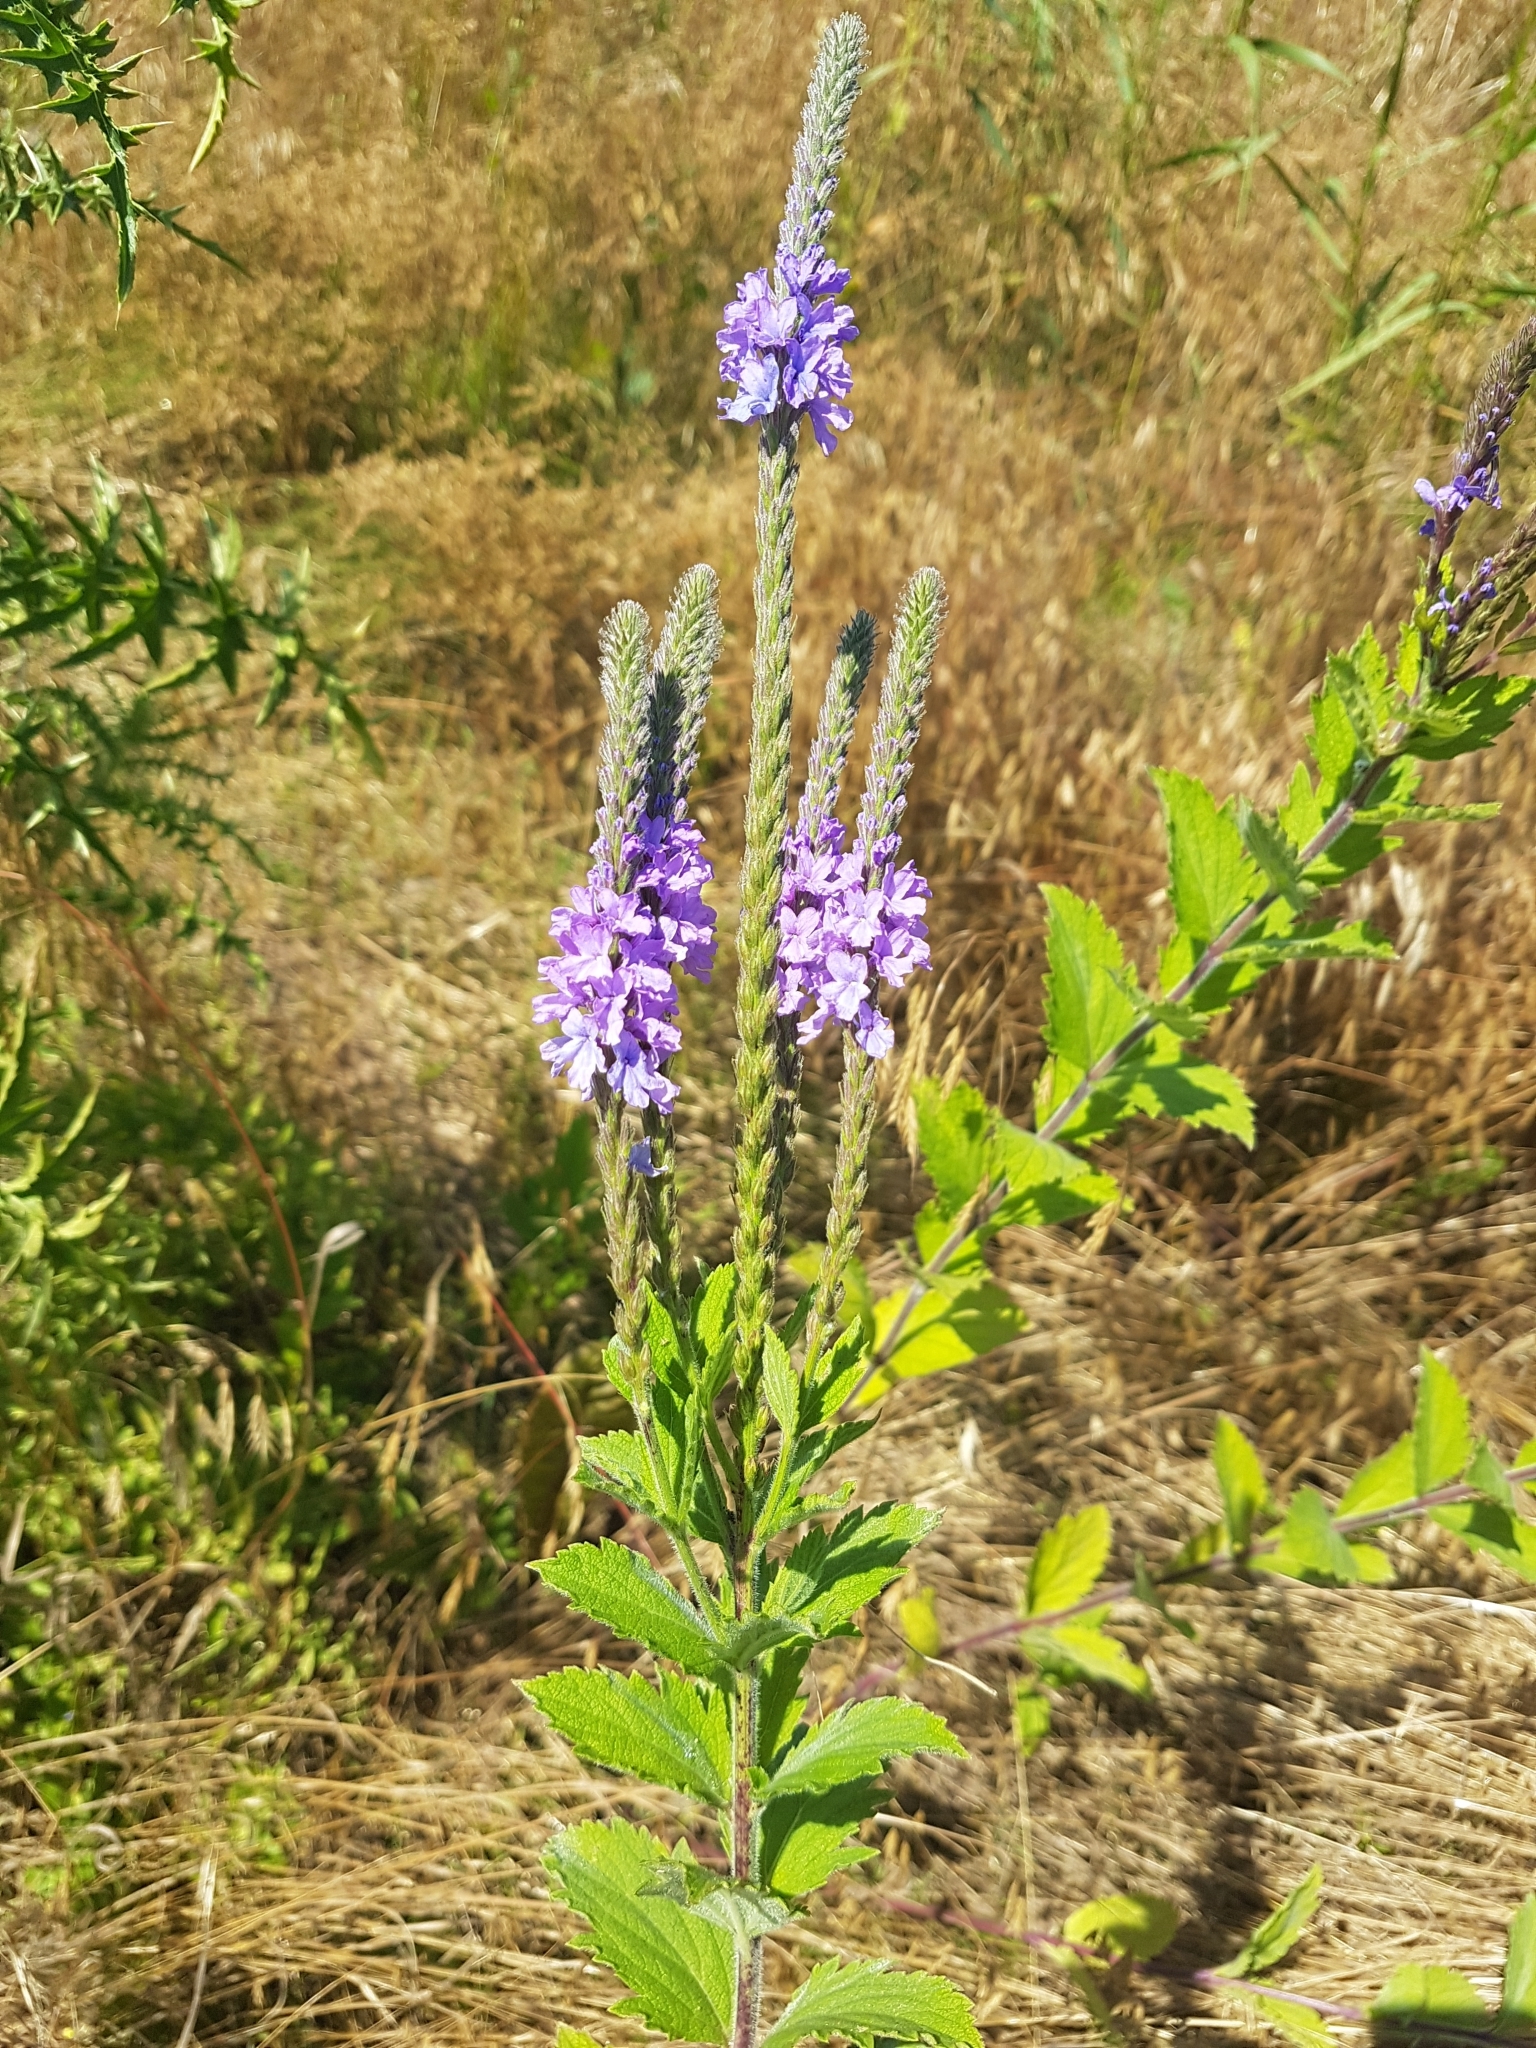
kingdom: Plantae
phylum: Tracheophyta
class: Magnoliopsida
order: Lamiales
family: Verbenaceae
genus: Verbena
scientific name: Verbena stricta
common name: Hoary vervain
